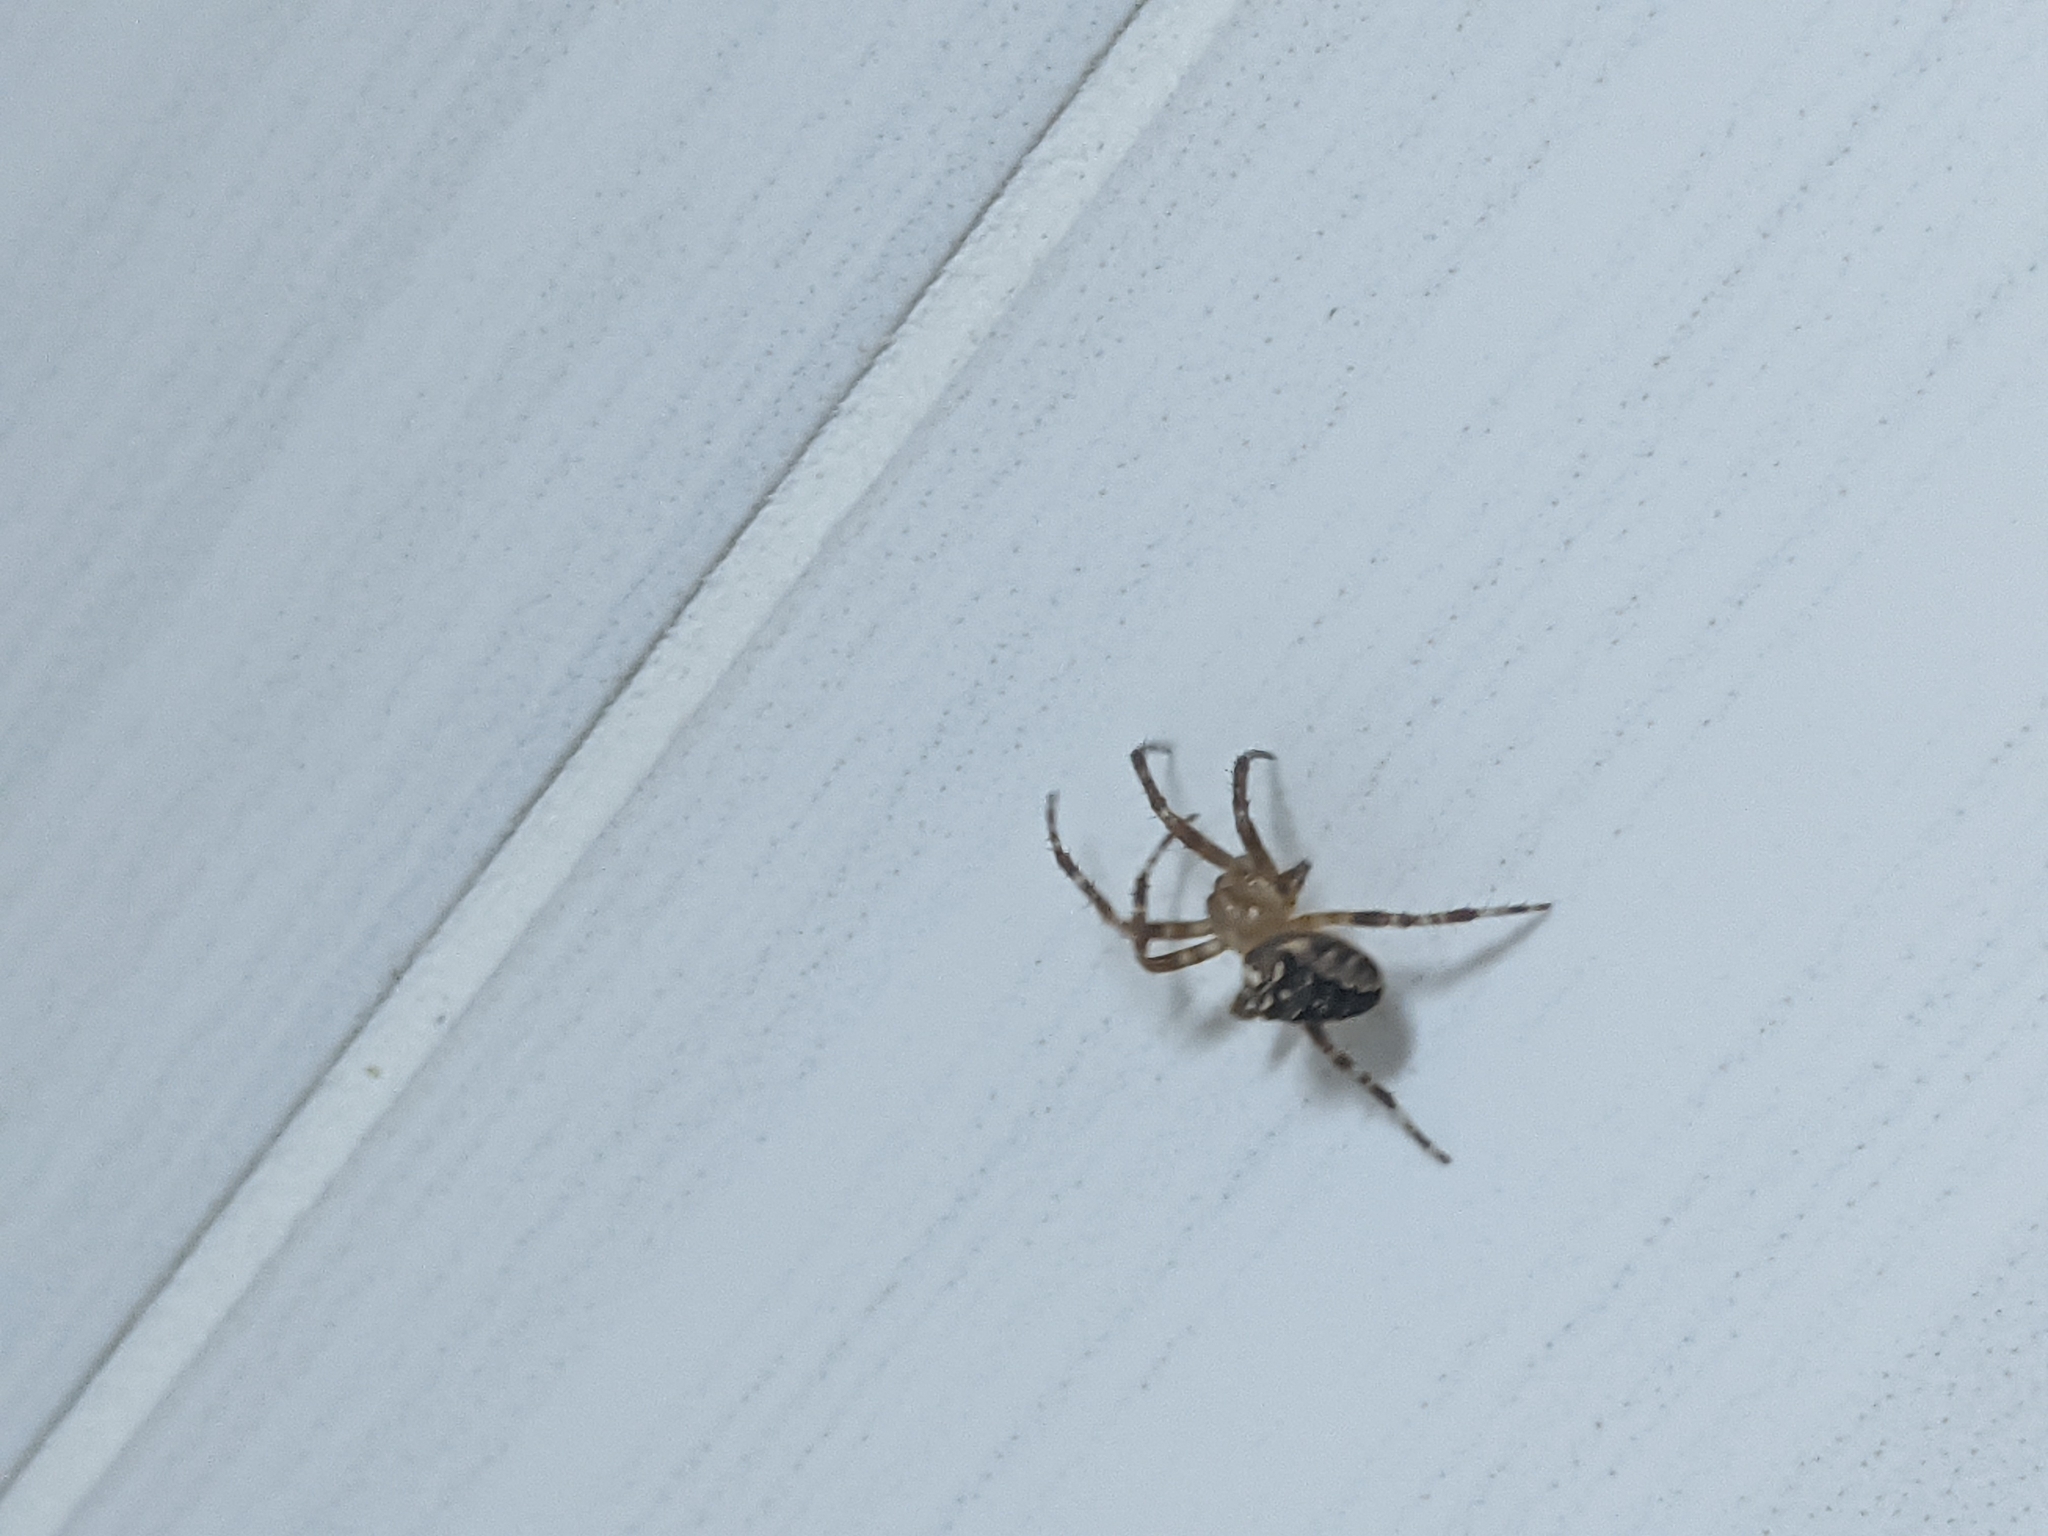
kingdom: Animalia
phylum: Arthropoda
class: Arachnida
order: Araneae
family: Araneidae
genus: Araneus
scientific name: Araneus diadematus
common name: Cross orbweaver
